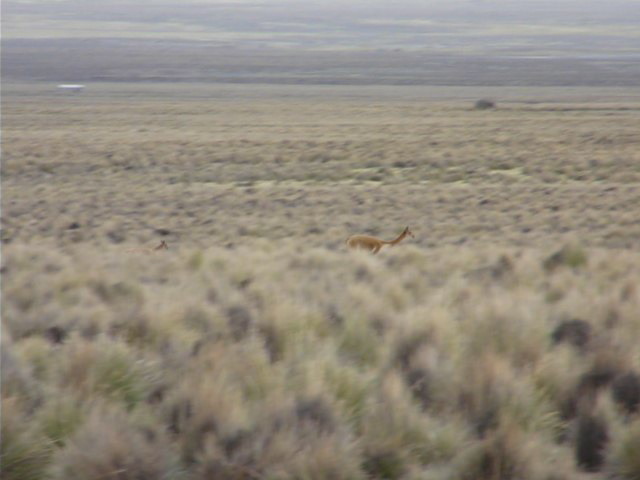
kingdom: Animalia
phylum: Chordata
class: Mammalia
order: Artiodactyla
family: Camelidae
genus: Vicugna
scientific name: Vicugna vicugna
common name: Vicugna
